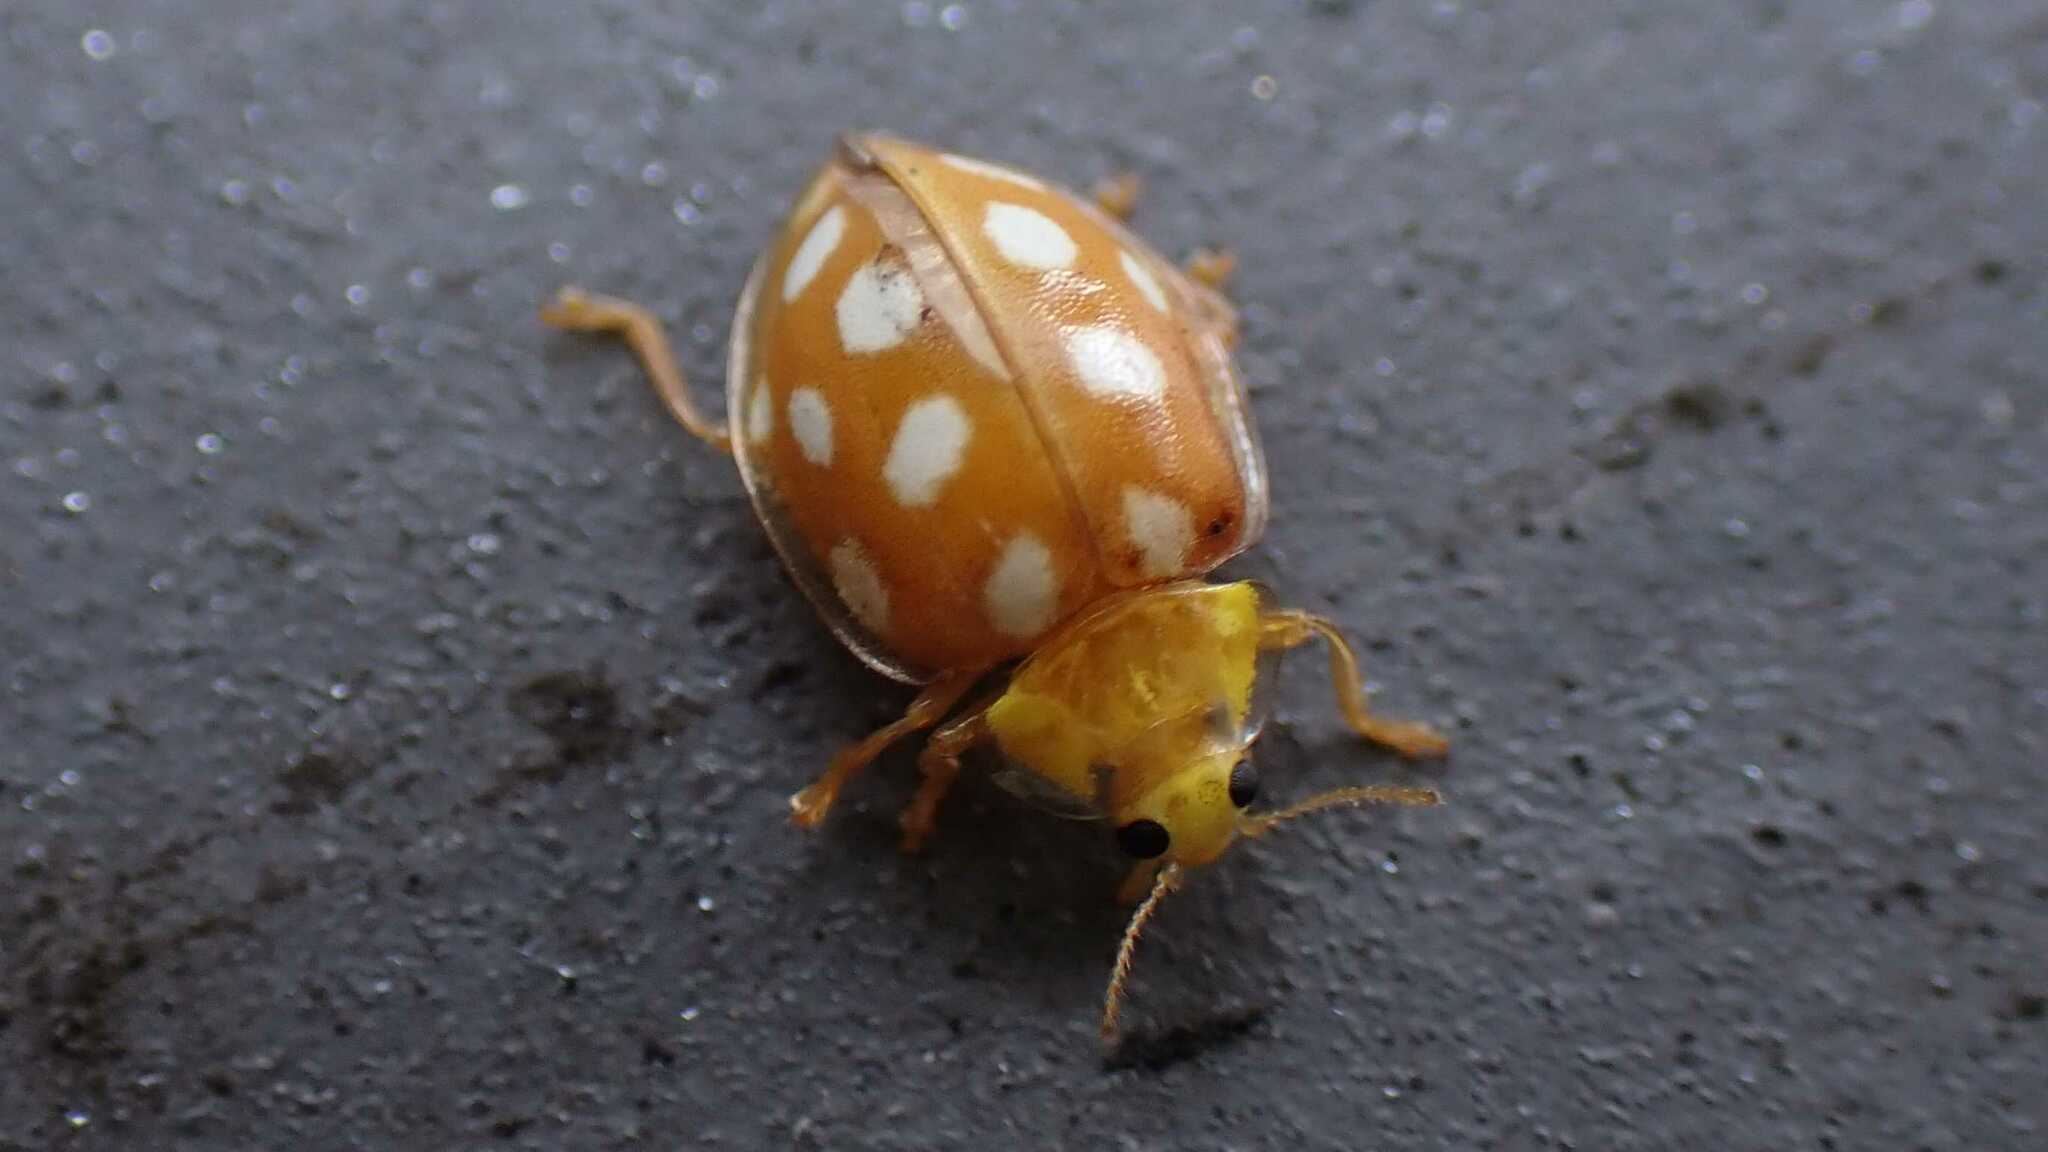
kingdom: Animalia
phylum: Arthropoda
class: Insecta
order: Coleoptera
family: Coccinellidae
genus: Halyzia
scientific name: Halyzia sedecimguttata
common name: Orange ladybird
